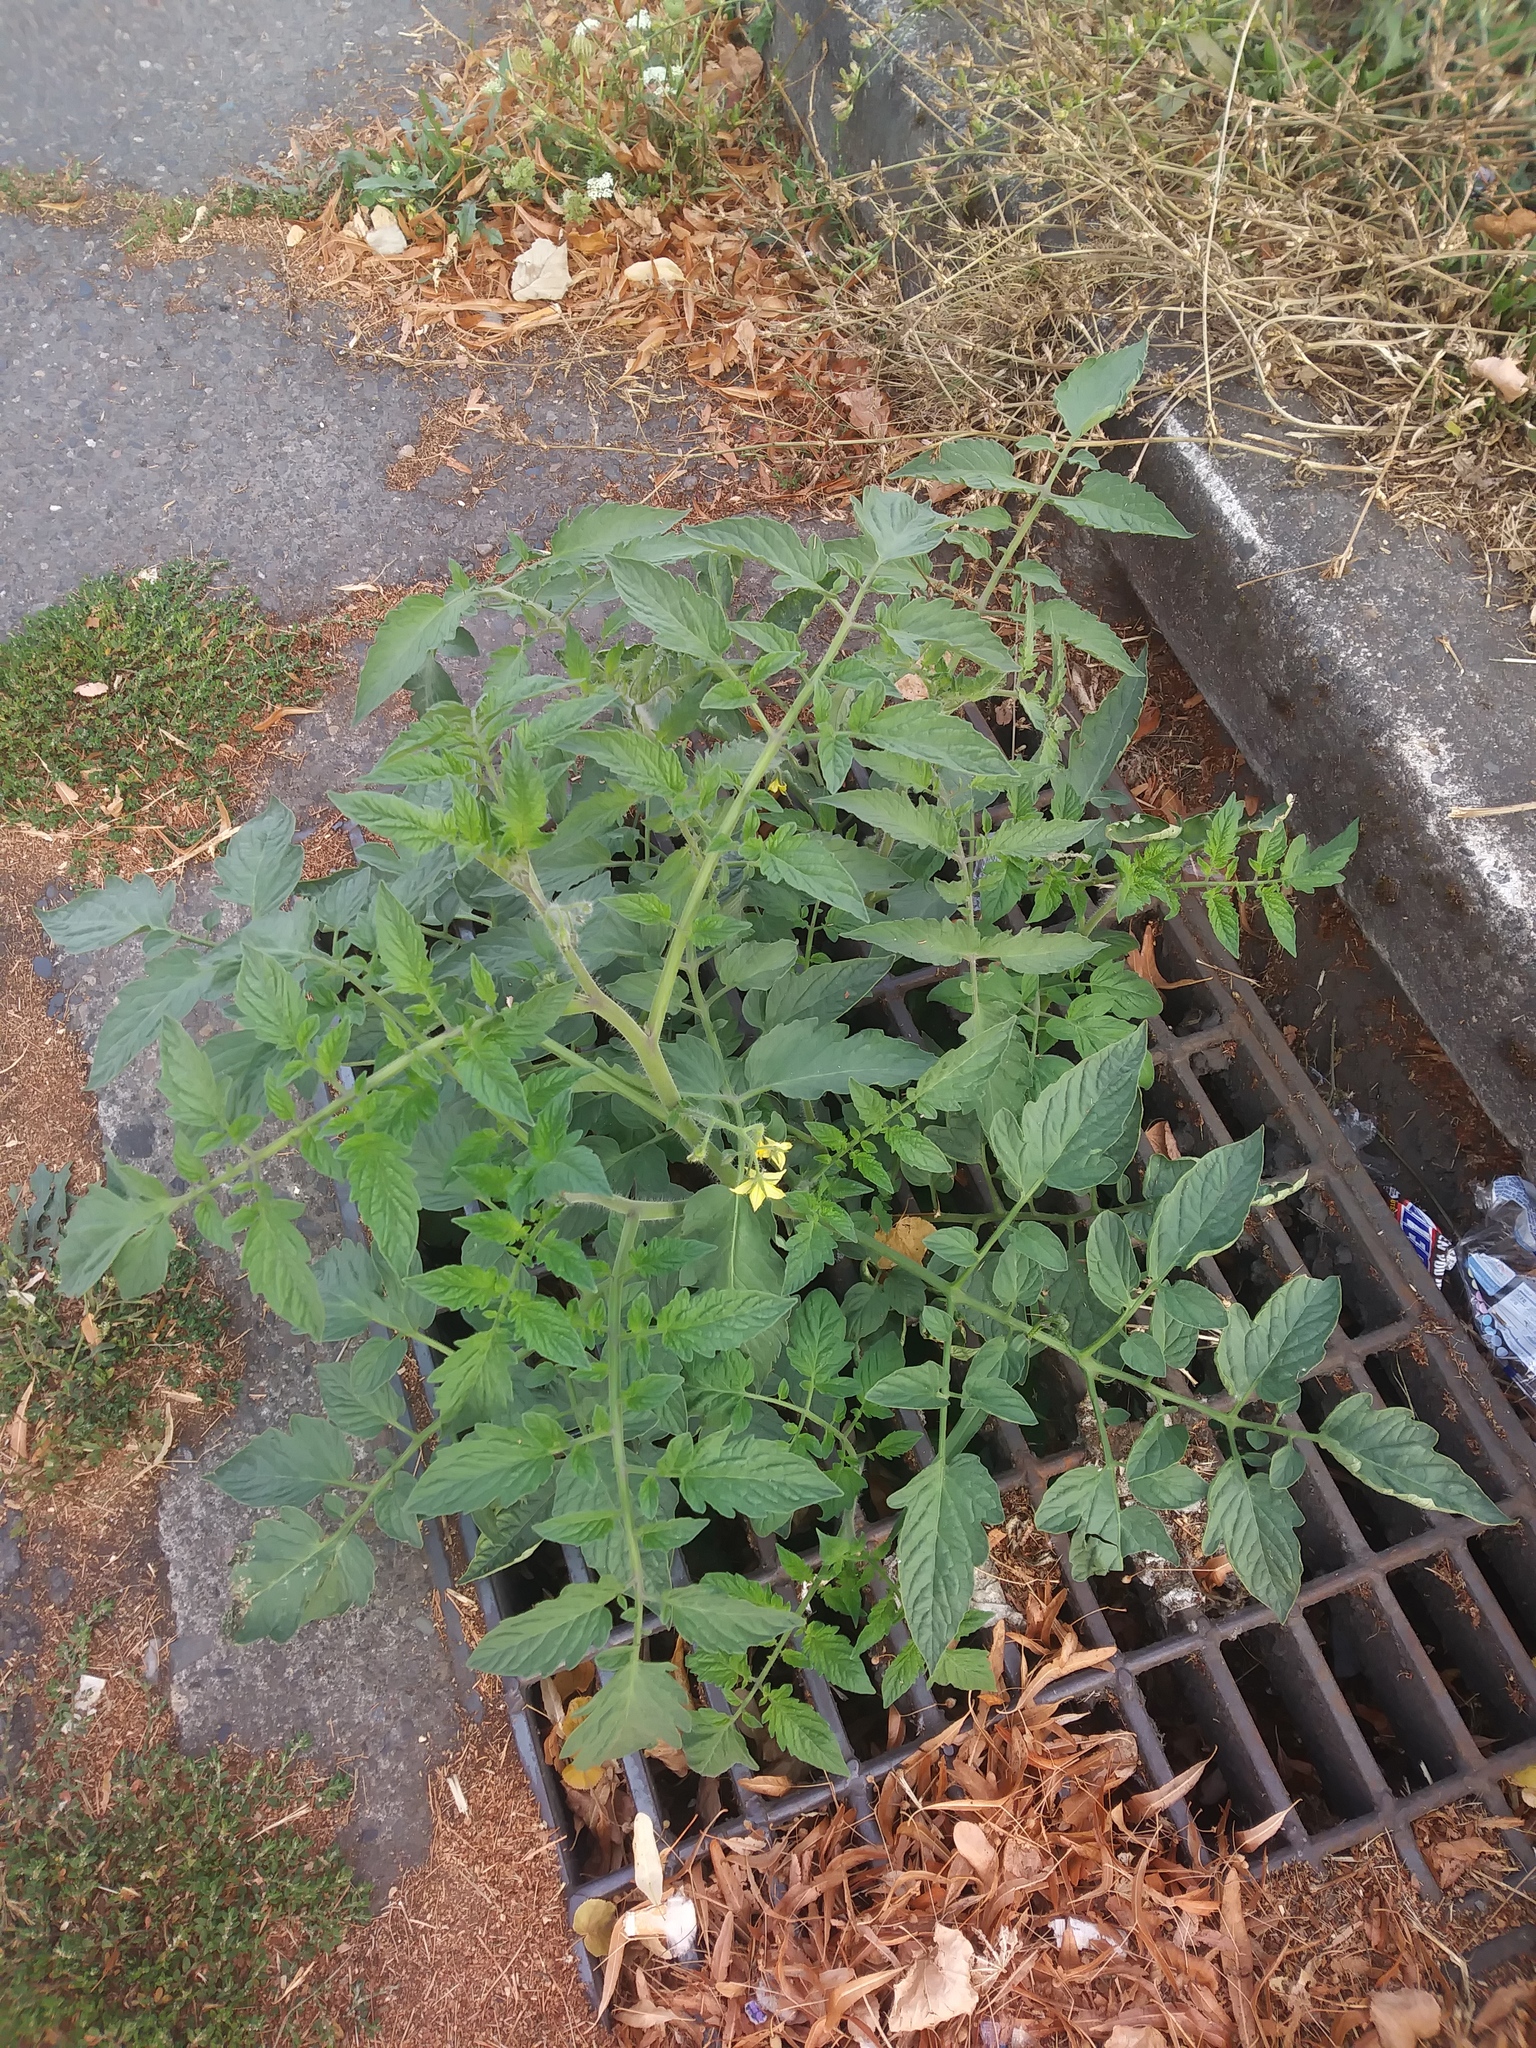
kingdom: Plantae
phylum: Tracheophyta
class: Magnoliopsida
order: Solanales
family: Solanaceae
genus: Solanum
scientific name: Solanum lycopersicum
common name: Garden tomato
